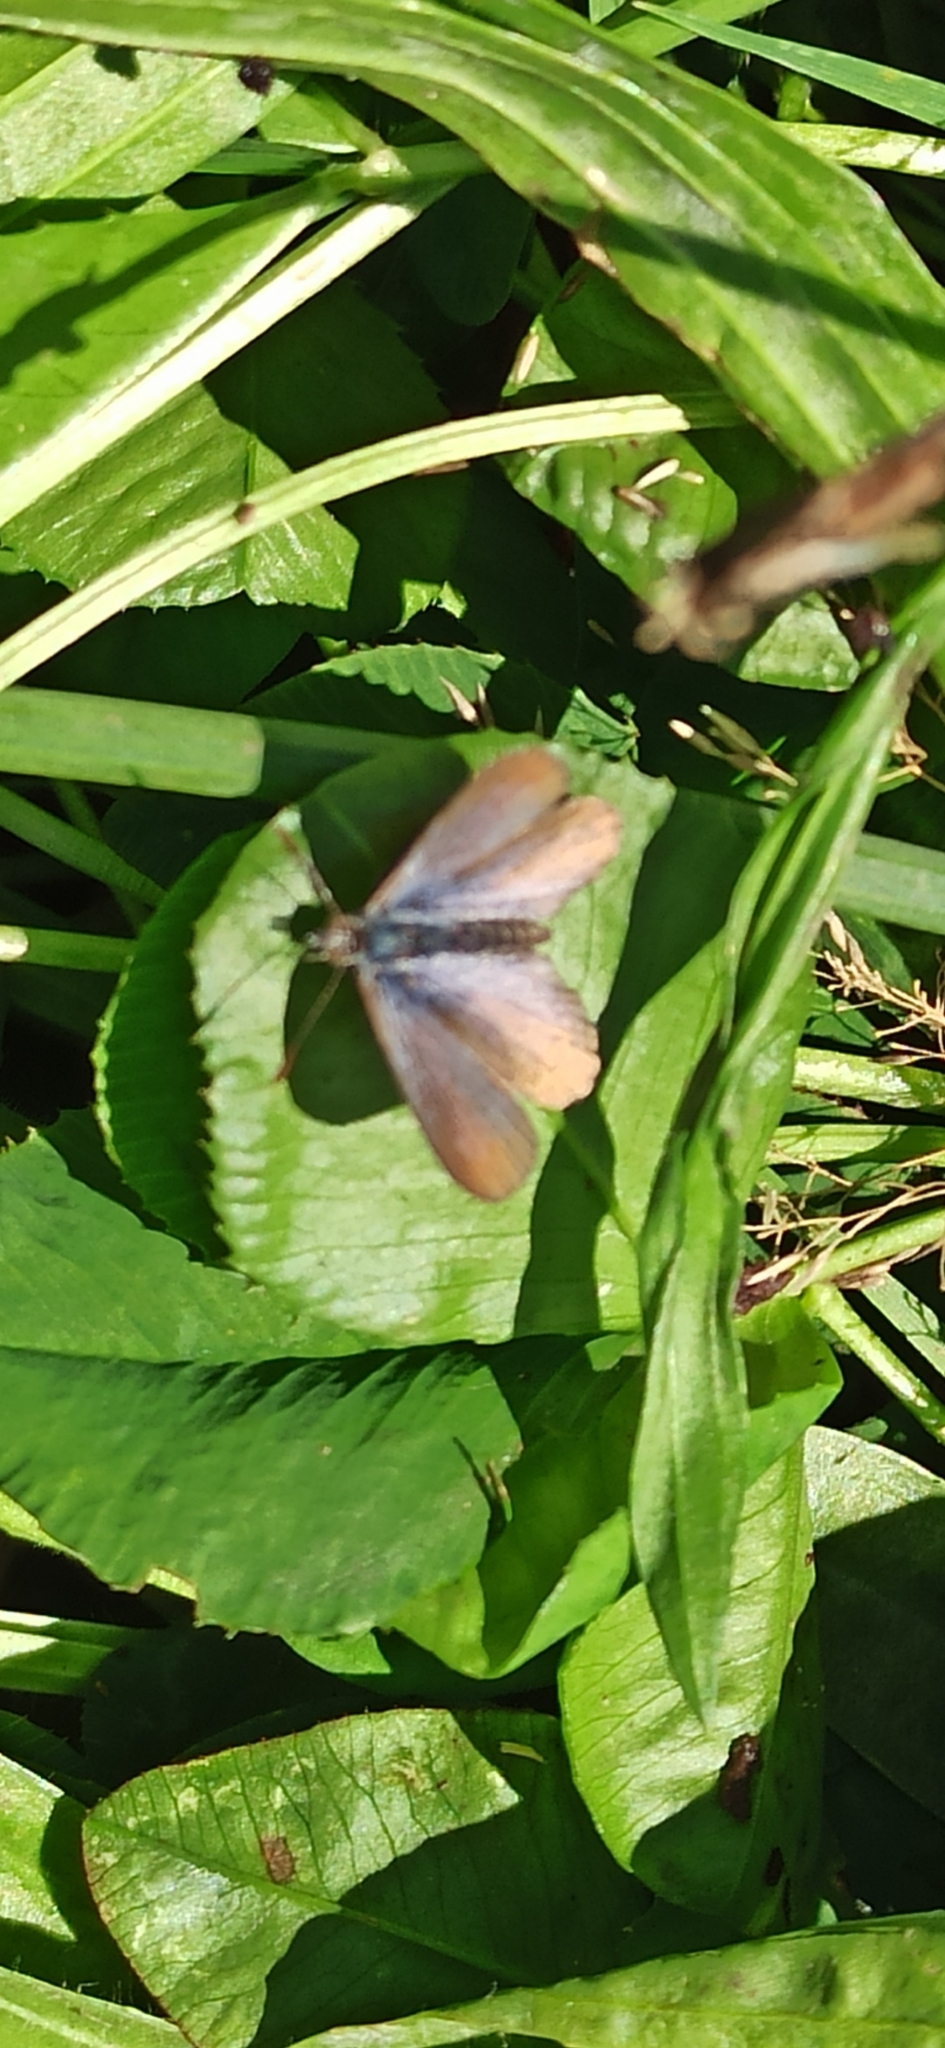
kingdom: Animalia
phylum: Arthropoda
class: Insecta
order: Lepidoptera
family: Lycaenidae
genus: Zizina
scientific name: Zizina oxleyi
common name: Southern blue
